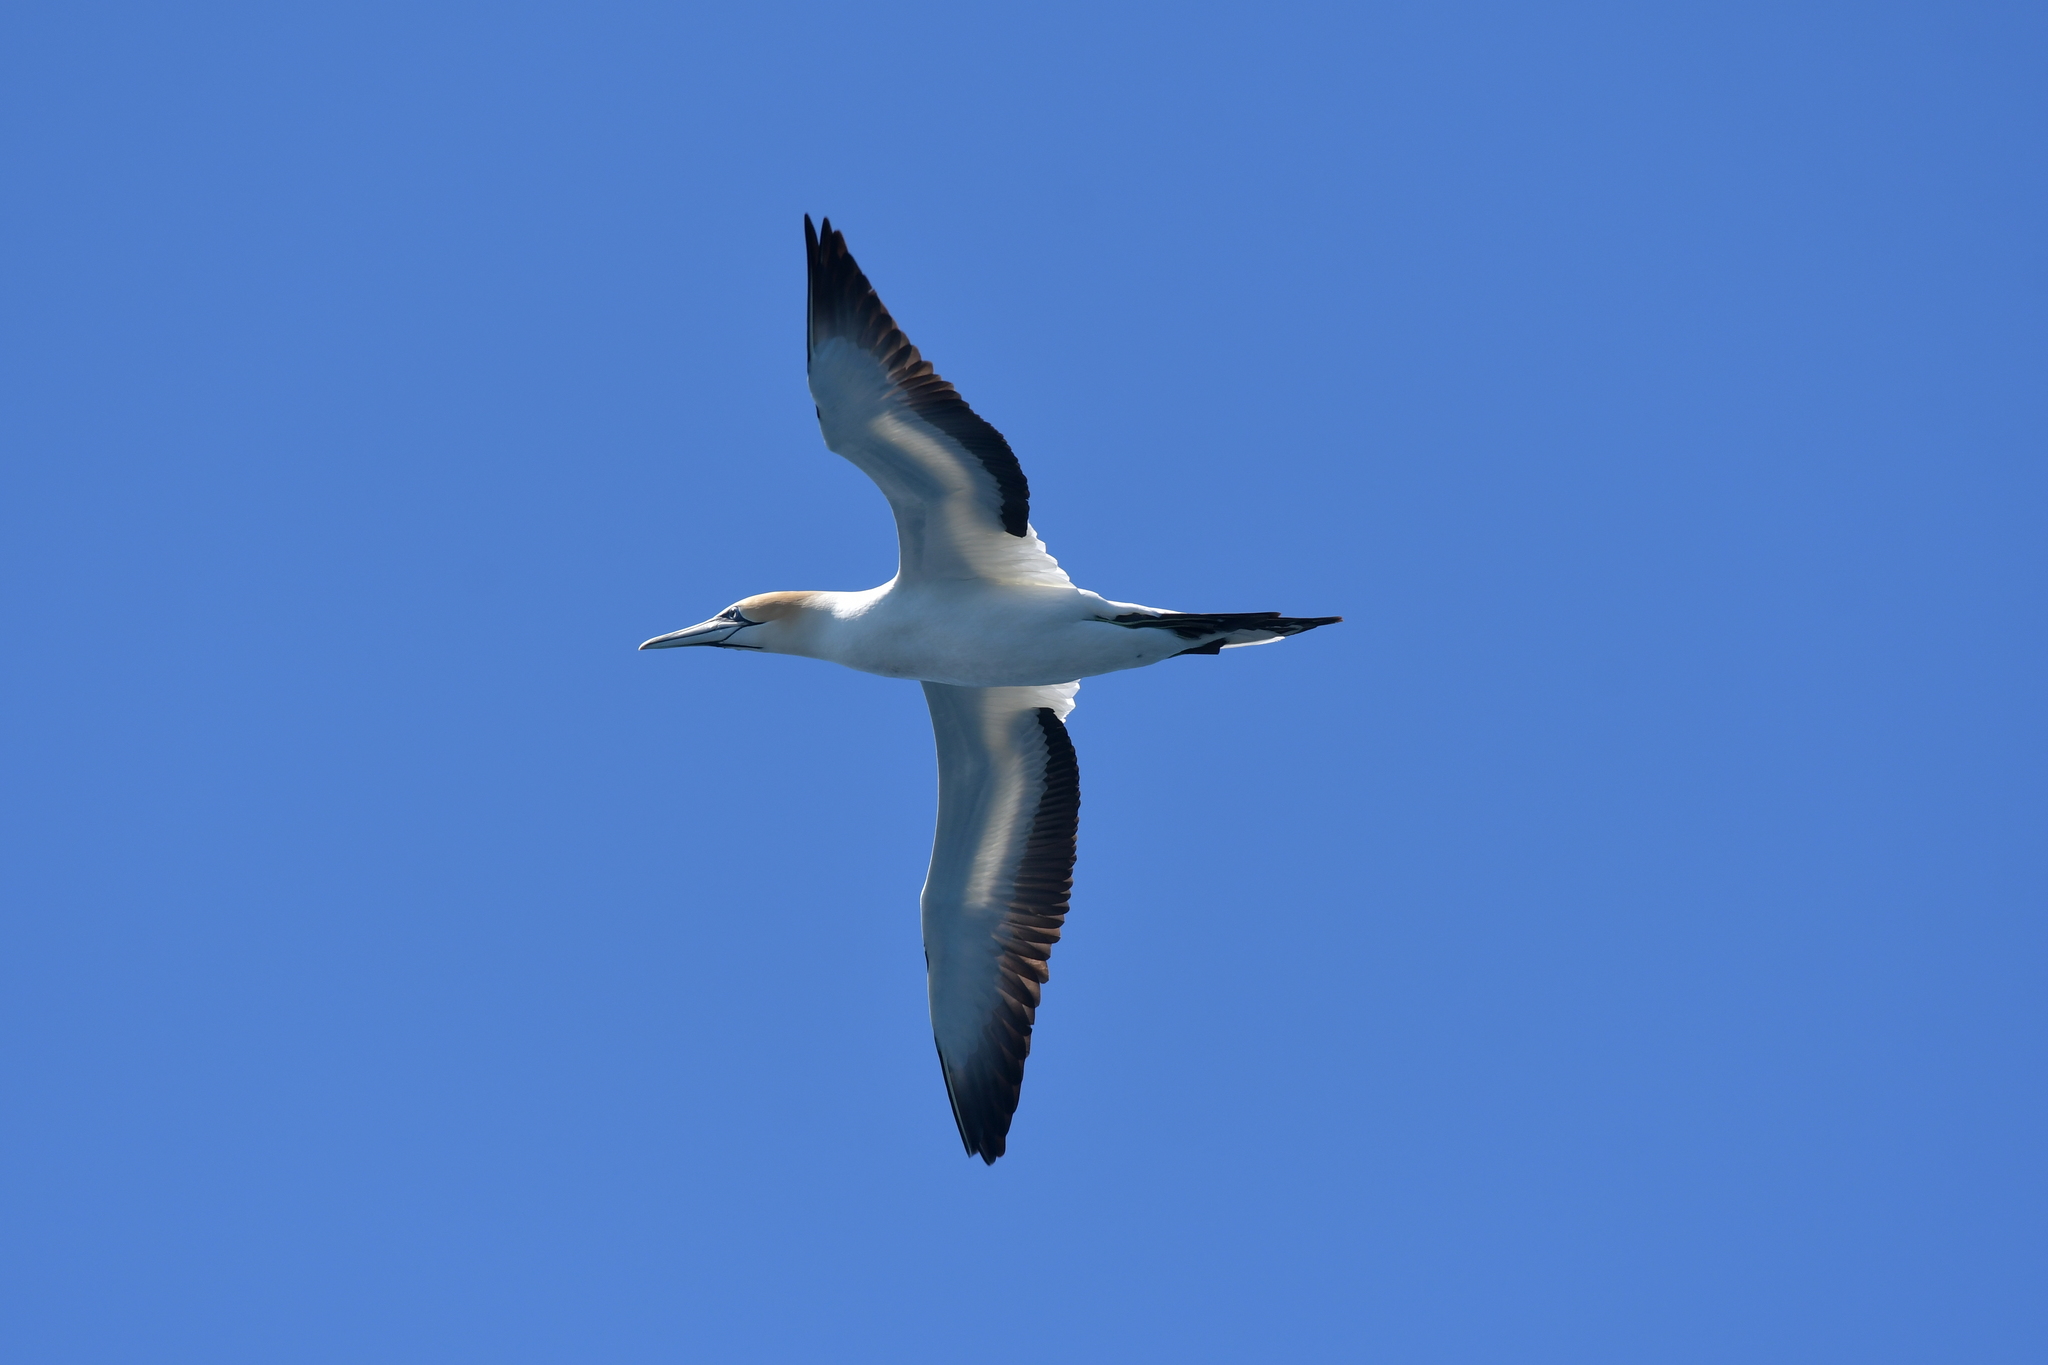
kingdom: Animalia
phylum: Chordata
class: Aves
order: Suliformes
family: Sulidae
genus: Morus
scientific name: Morus serrator
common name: Australasian gannet
